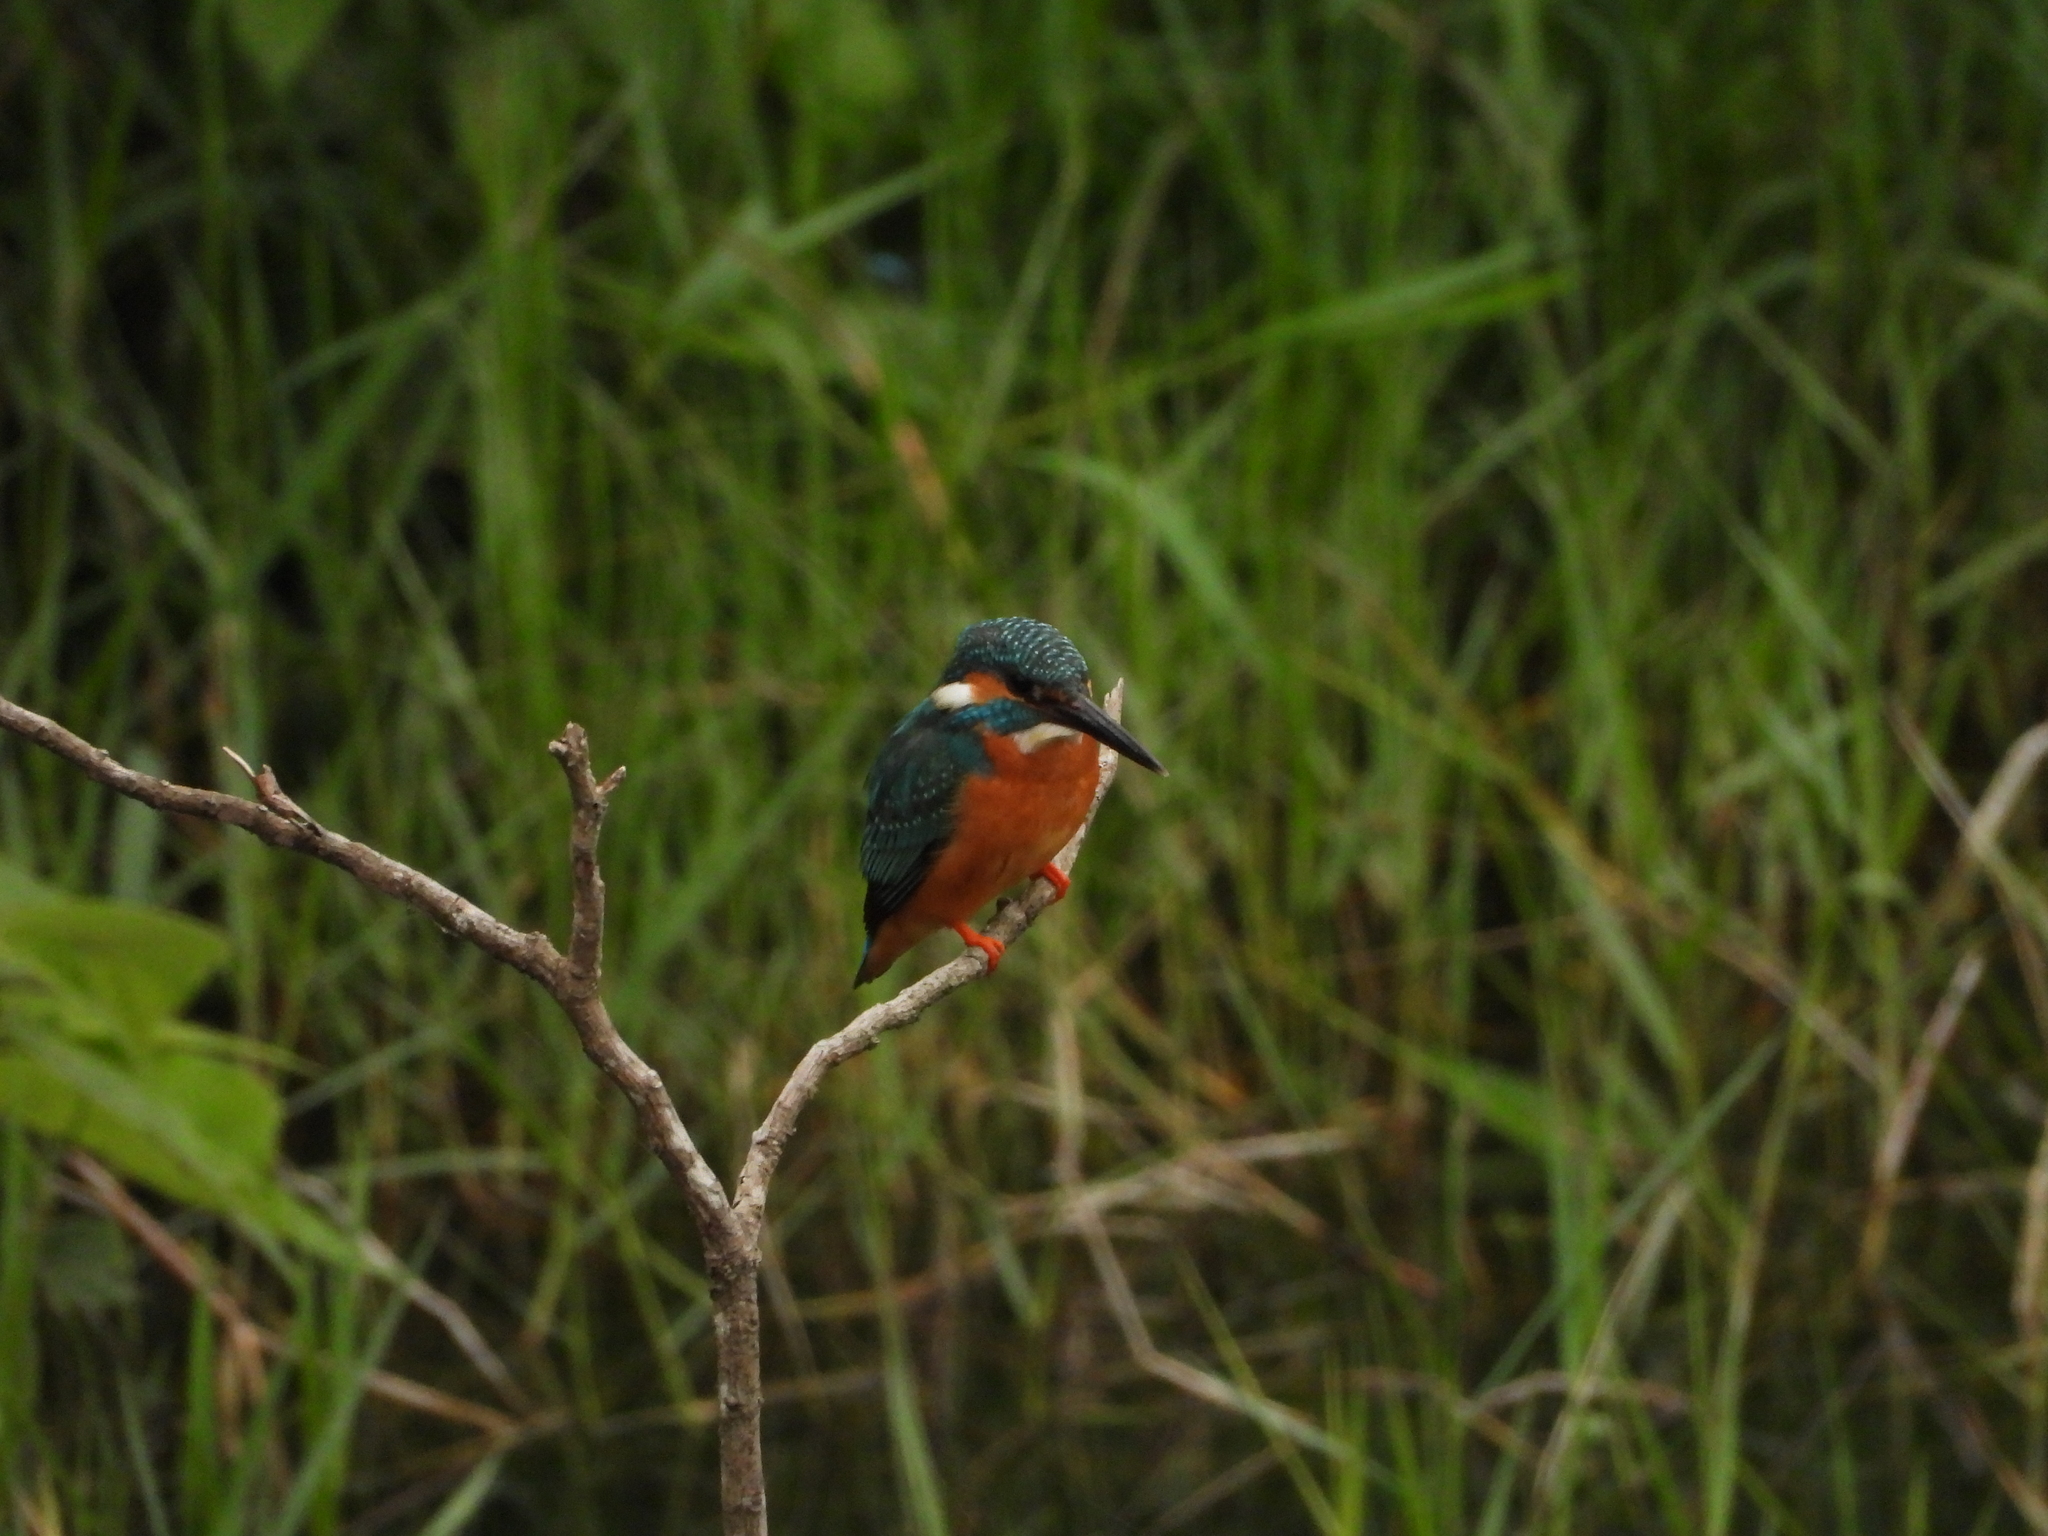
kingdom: Animalia
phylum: Chordata
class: Aves
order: Coraciiformes
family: Alcedinidae
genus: Alcedo
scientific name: Alcedo atthis
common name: Common kingfisher
